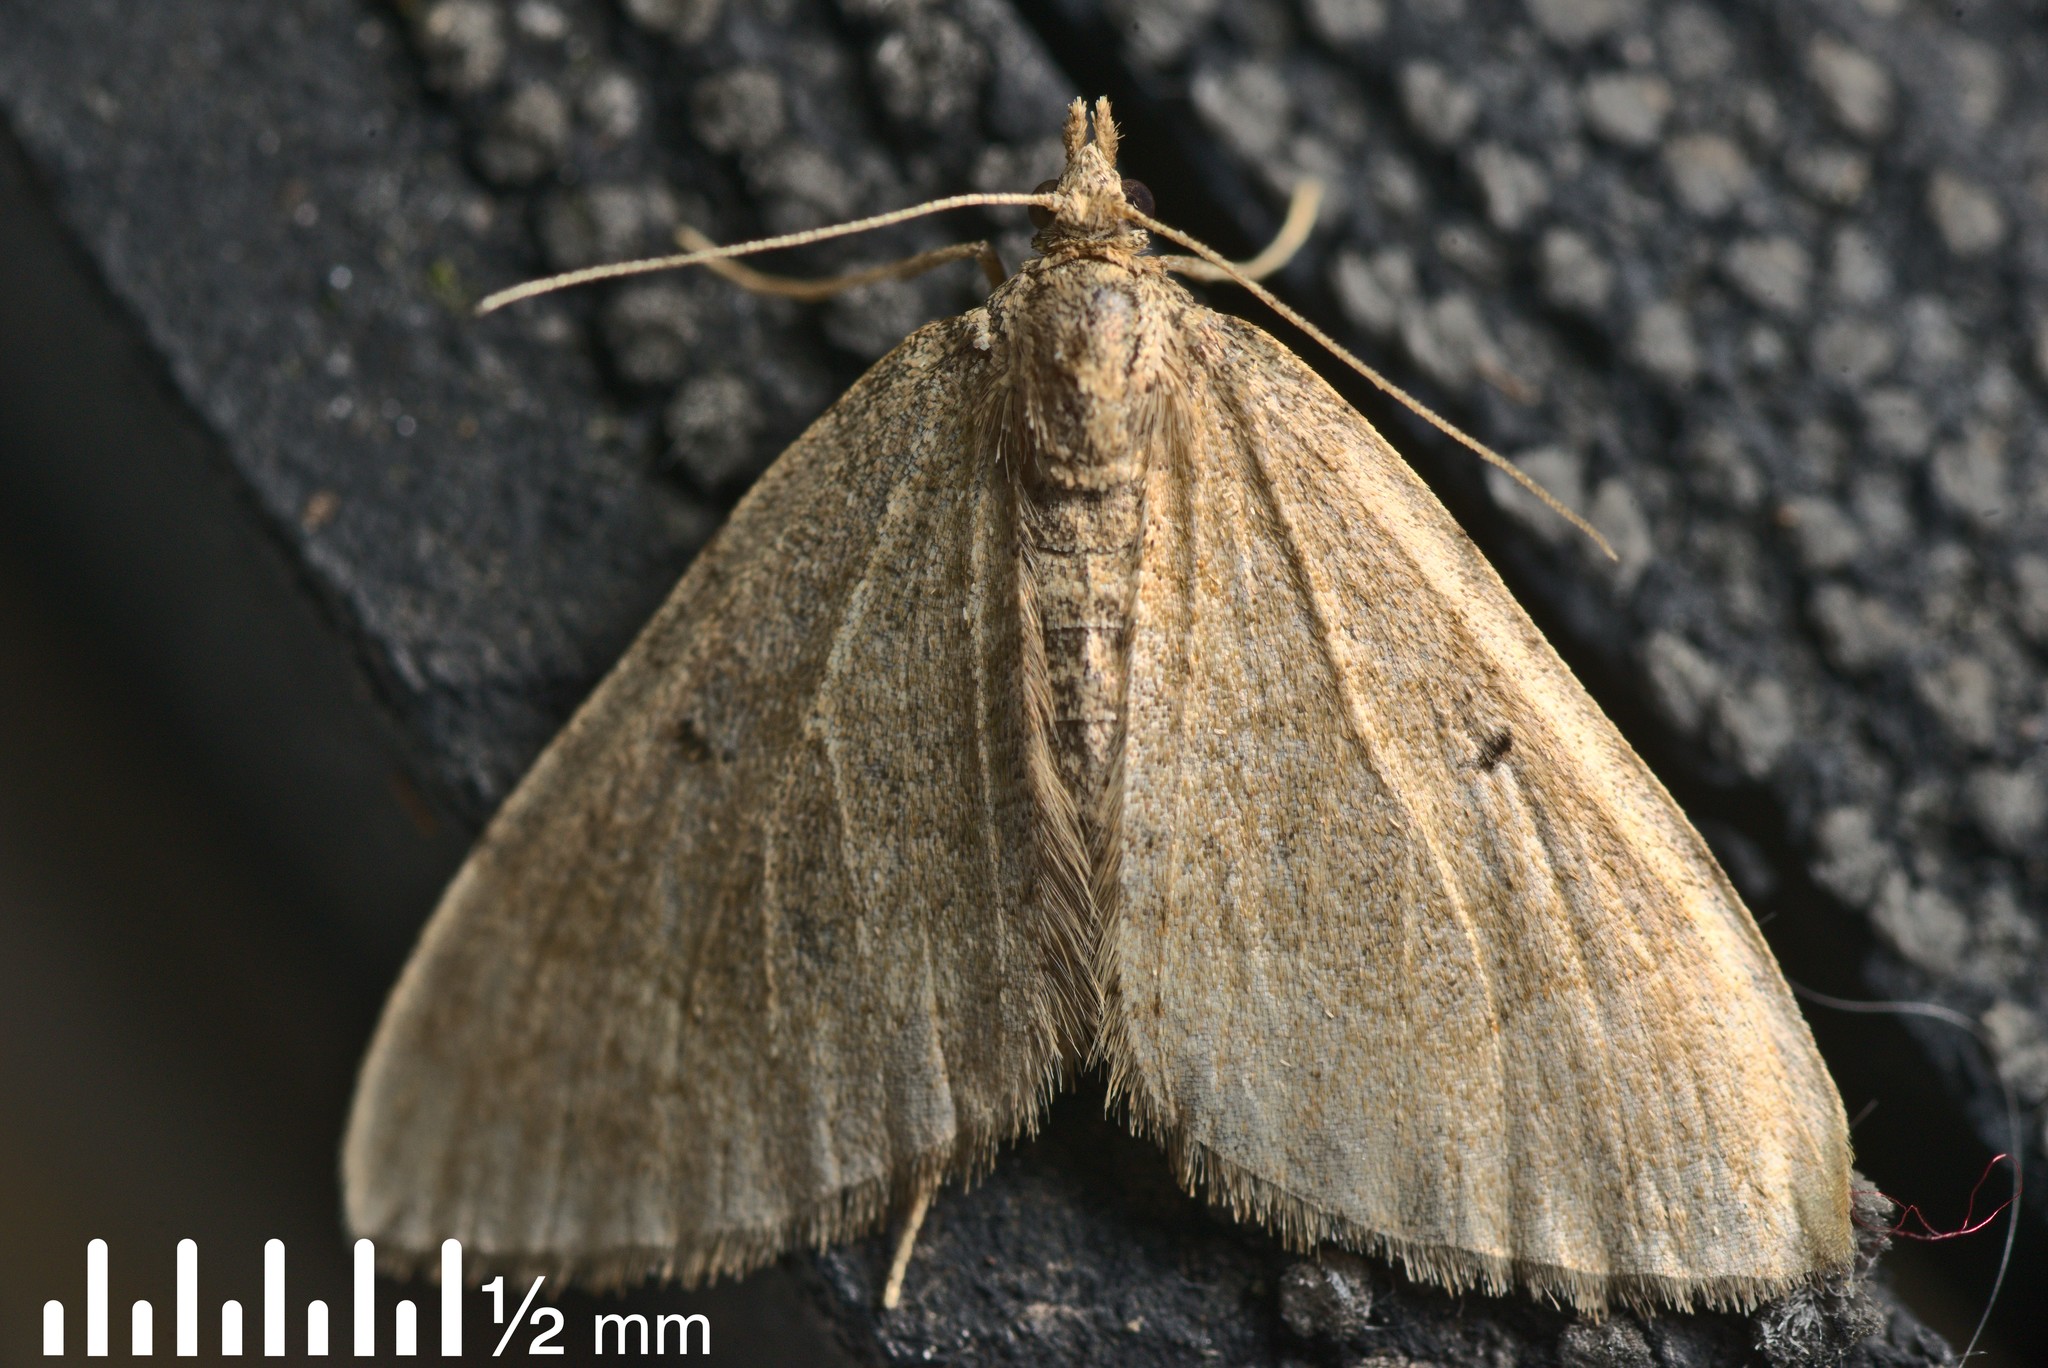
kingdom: Animalia
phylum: Arthropoda
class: Insecta
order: Lepidoptera
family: Geometridae
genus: Epyaxa
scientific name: Epyaxa rosearia
